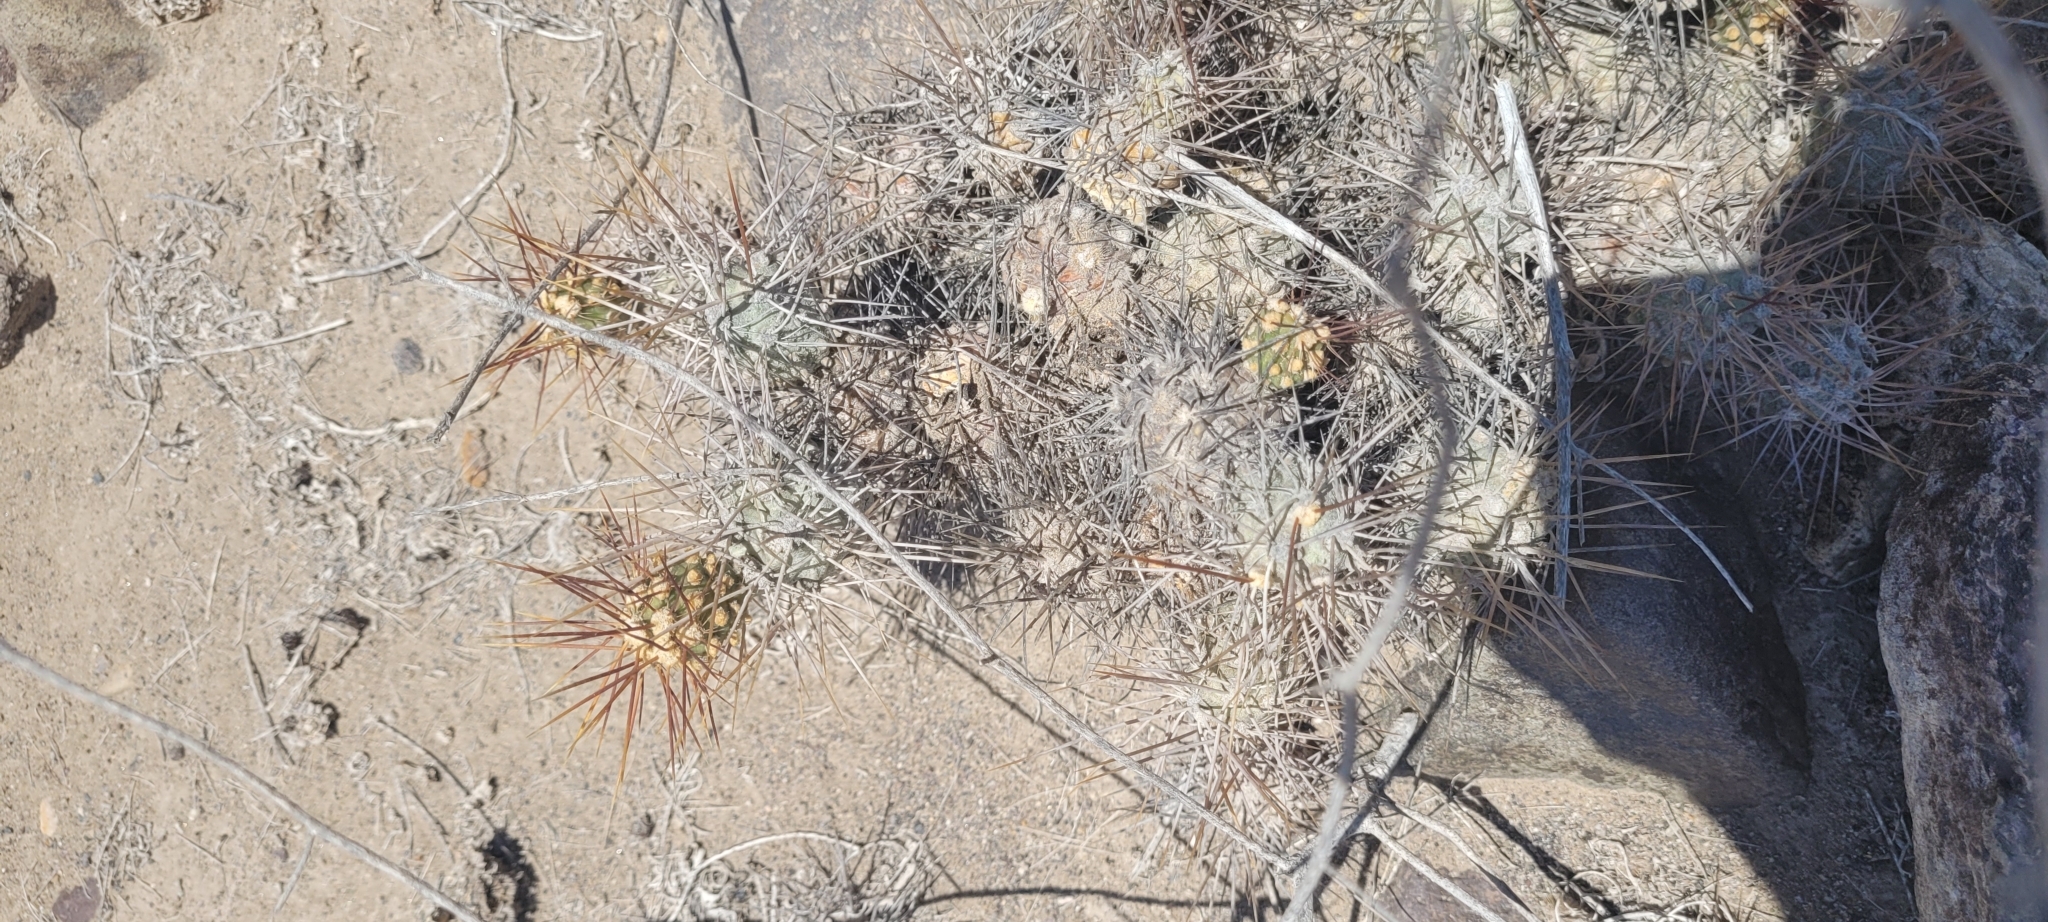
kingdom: Plantae
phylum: Tracheophyta
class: Magnoliopsida
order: Caryophyllales
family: Cactaceae
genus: Cumulopuntia
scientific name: Cumulopuntia leucophaea
